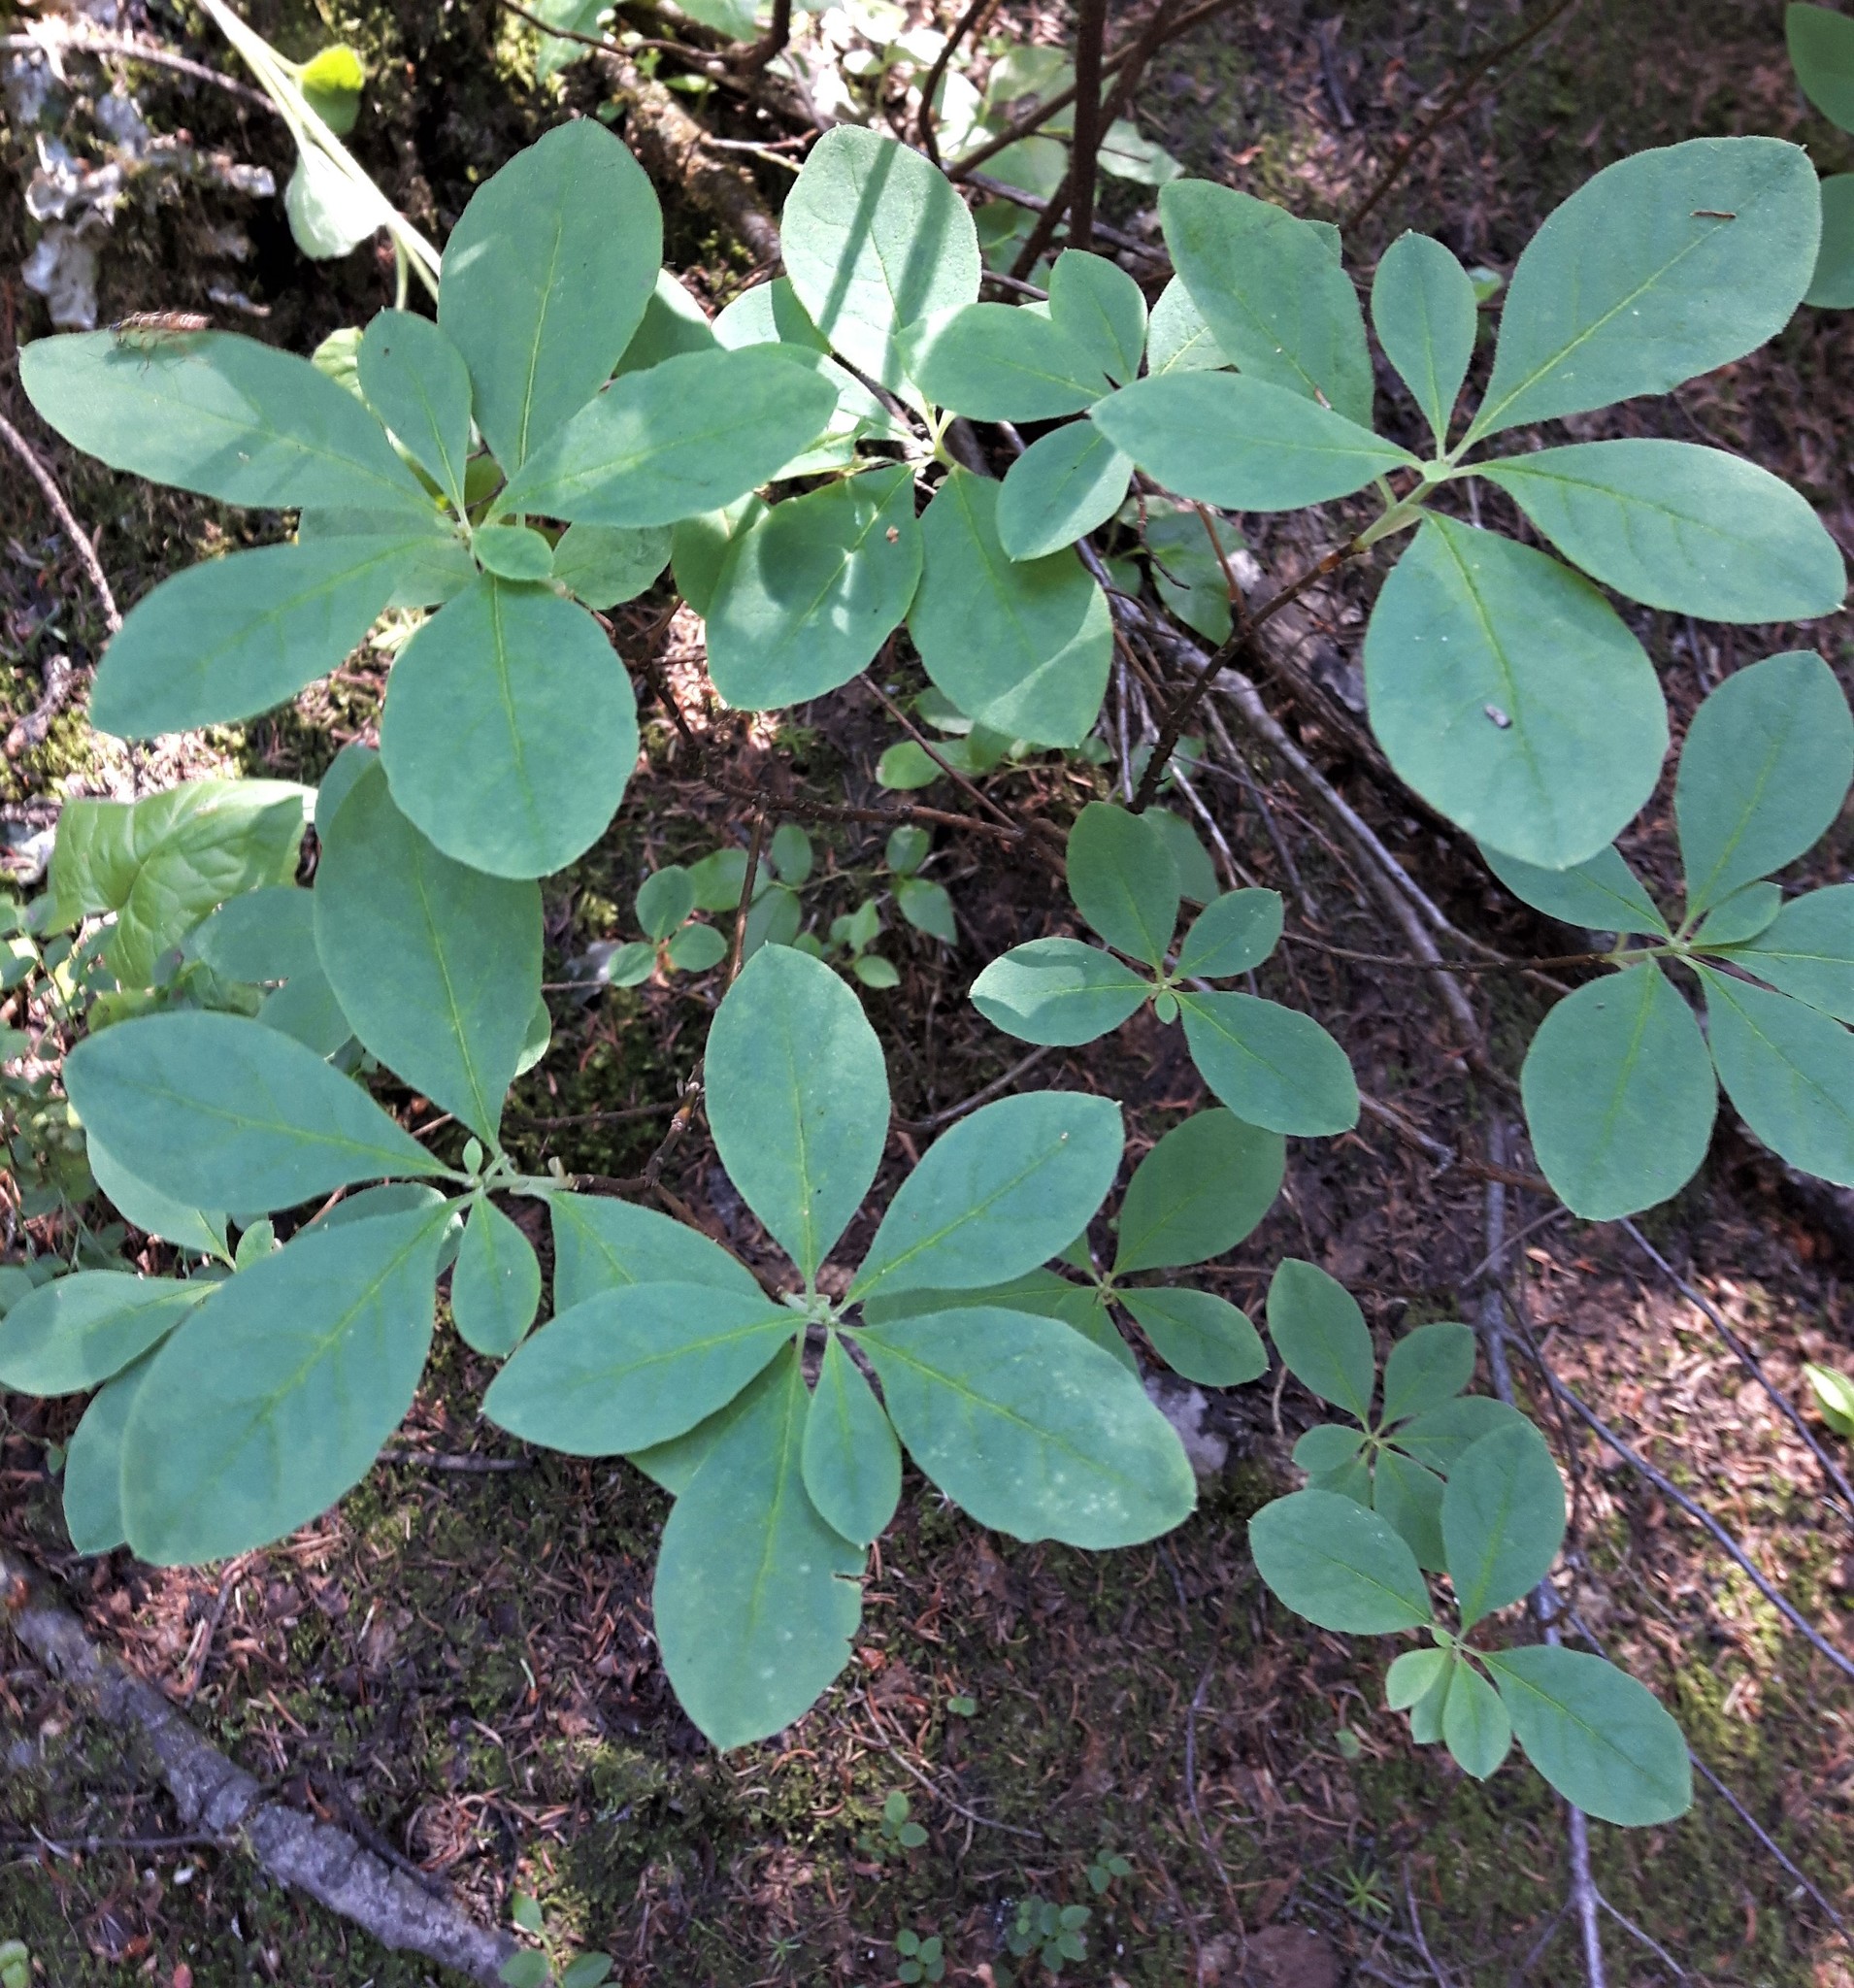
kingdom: Plantae
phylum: Tracheophyta
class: Magnoliopsida
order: Ericales
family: Ericaceae
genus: Rhododendron
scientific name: Rhododendron menziesii
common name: Pacific menziesia
